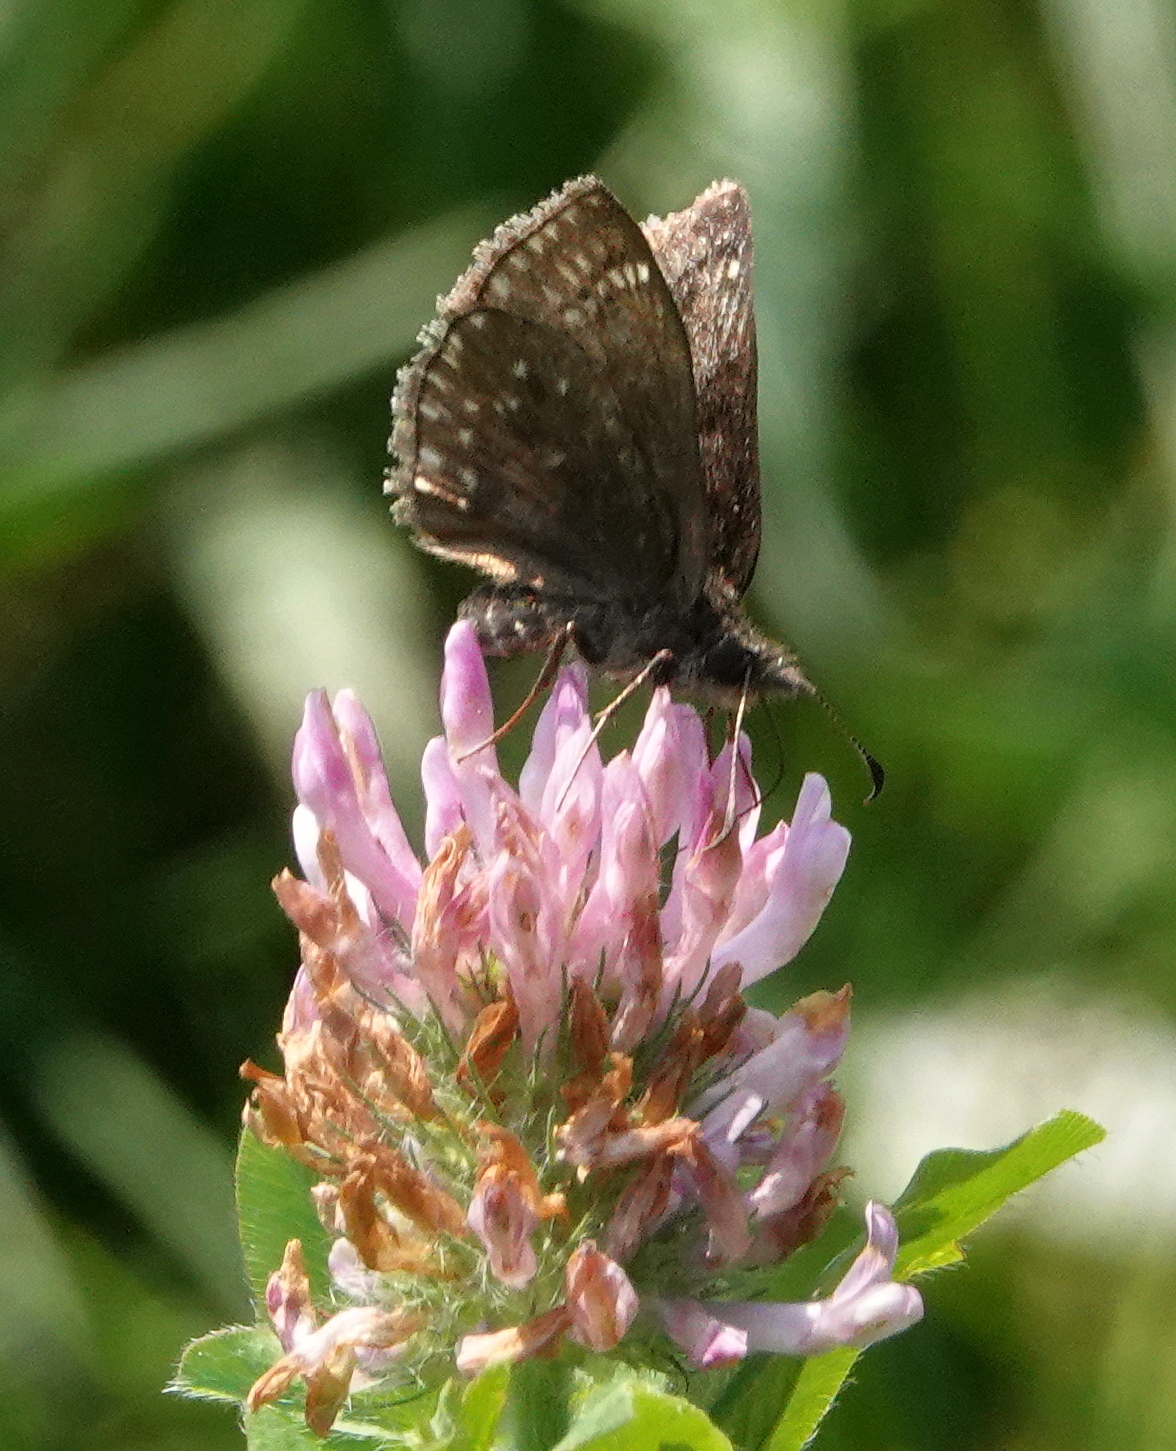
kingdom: Animalia
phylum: Arthropoda
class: Insecta
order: Lepidoptera
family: Hesperiidae
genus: Erynnis
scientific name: Erynnis icelus
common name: Dreamy duskywing
